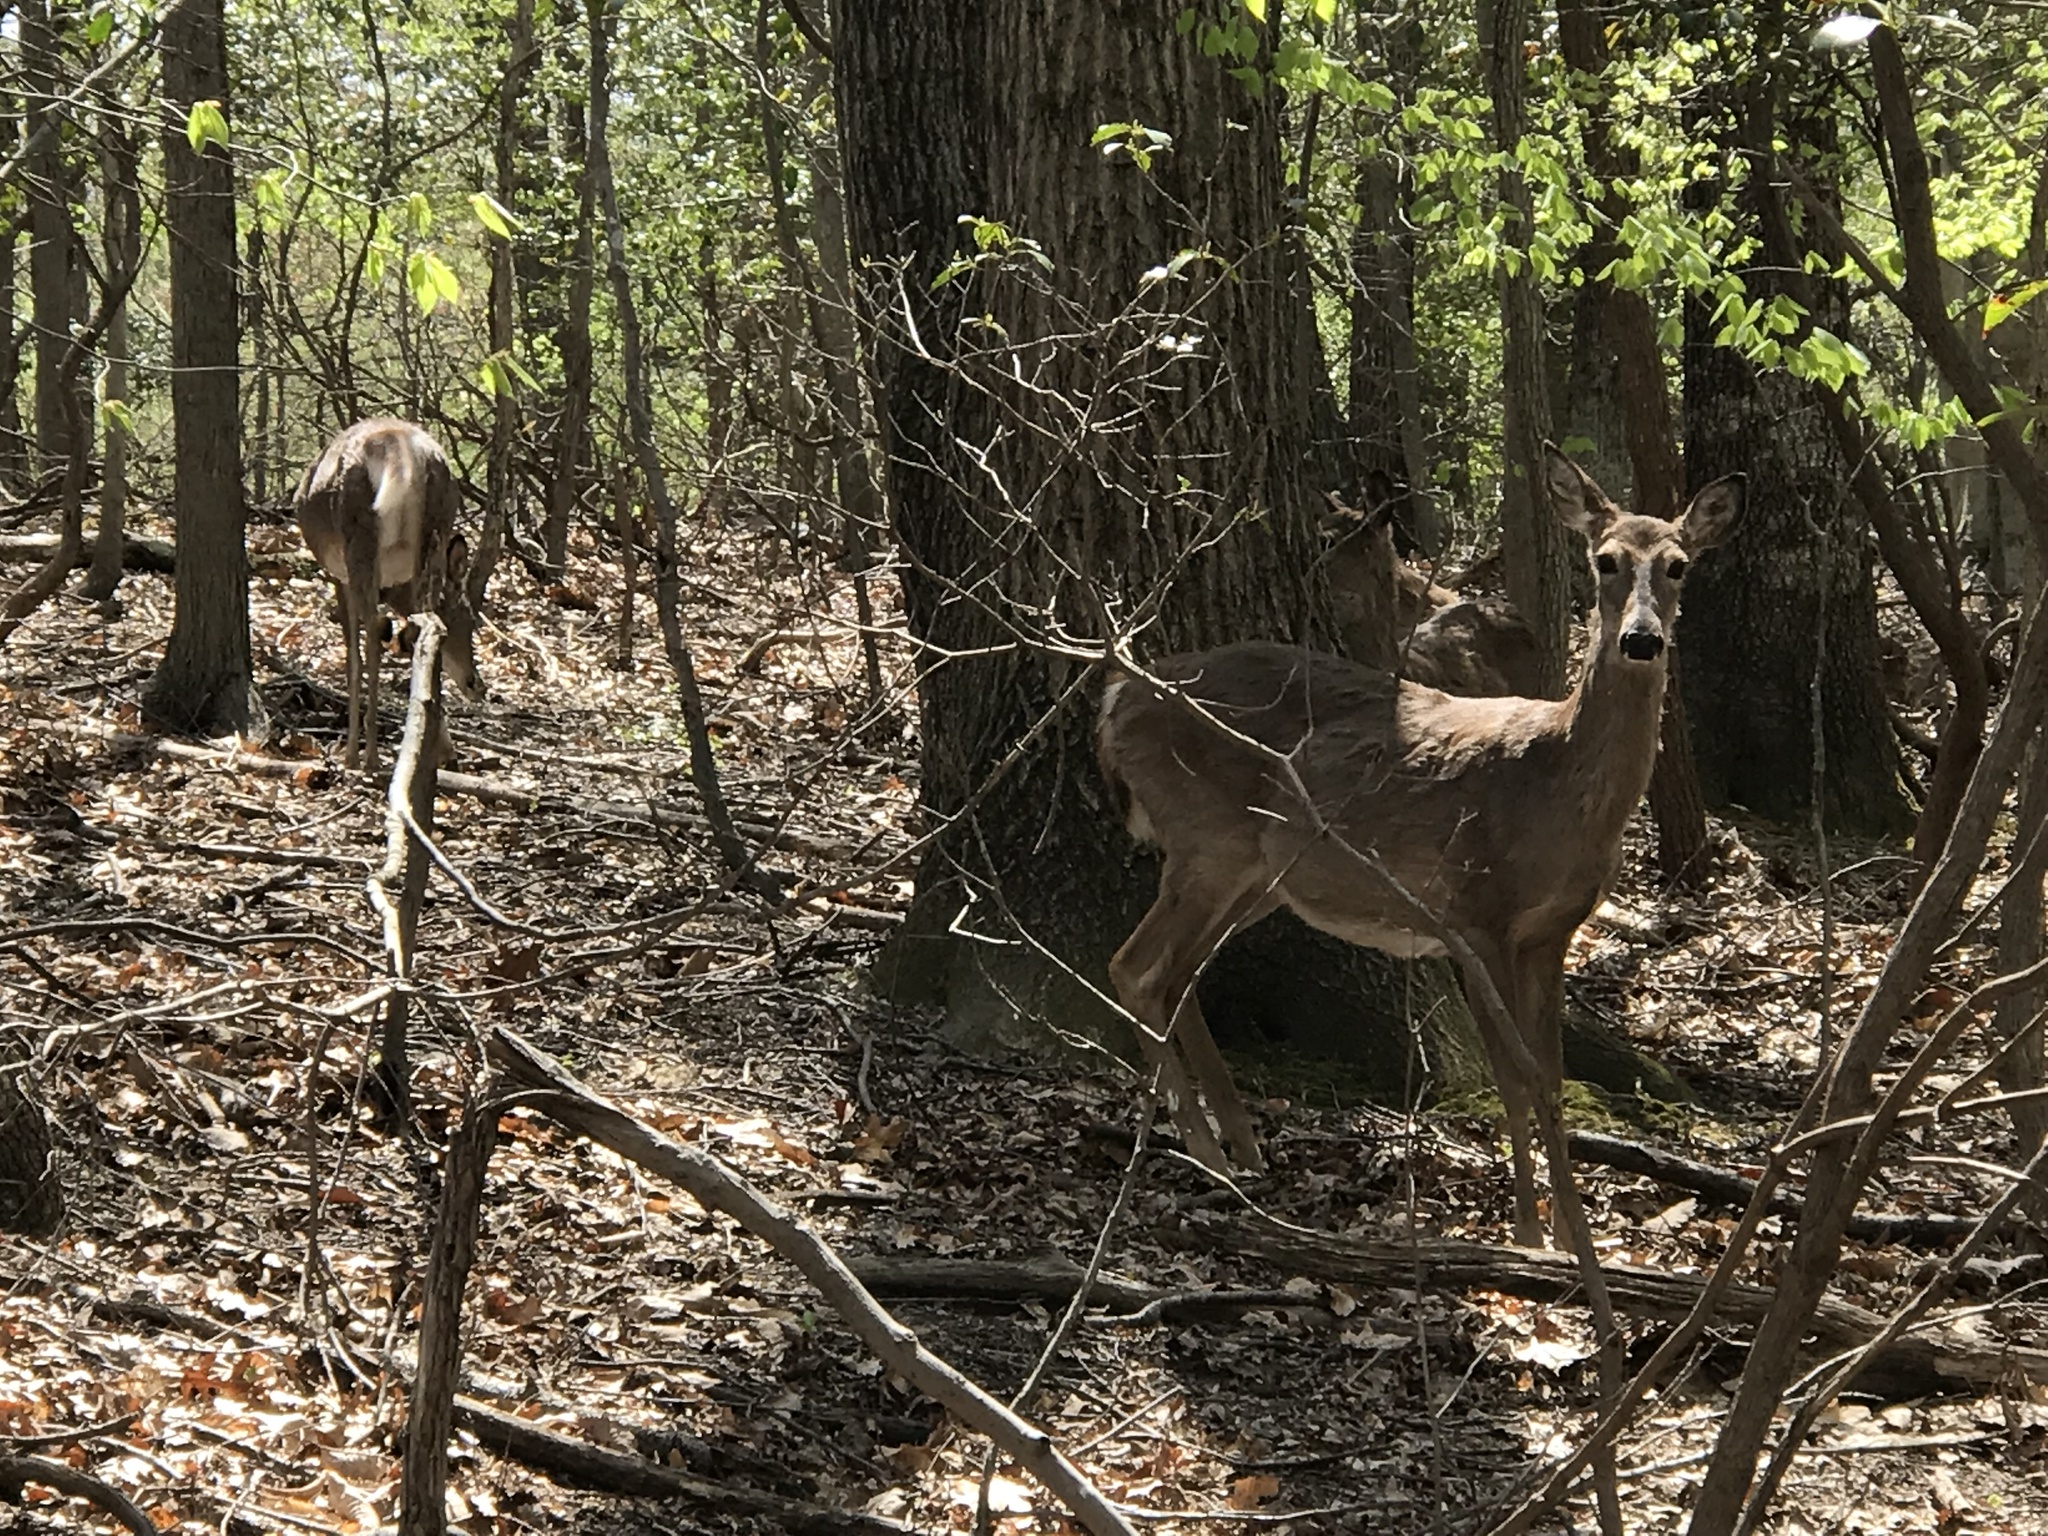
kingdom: Animalia
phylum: Chordata
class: Mammalia
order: Artiodactyla
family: Cervidae
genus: Odocoileus
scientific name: Odocoileus virginianus
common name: White-tailed deer
